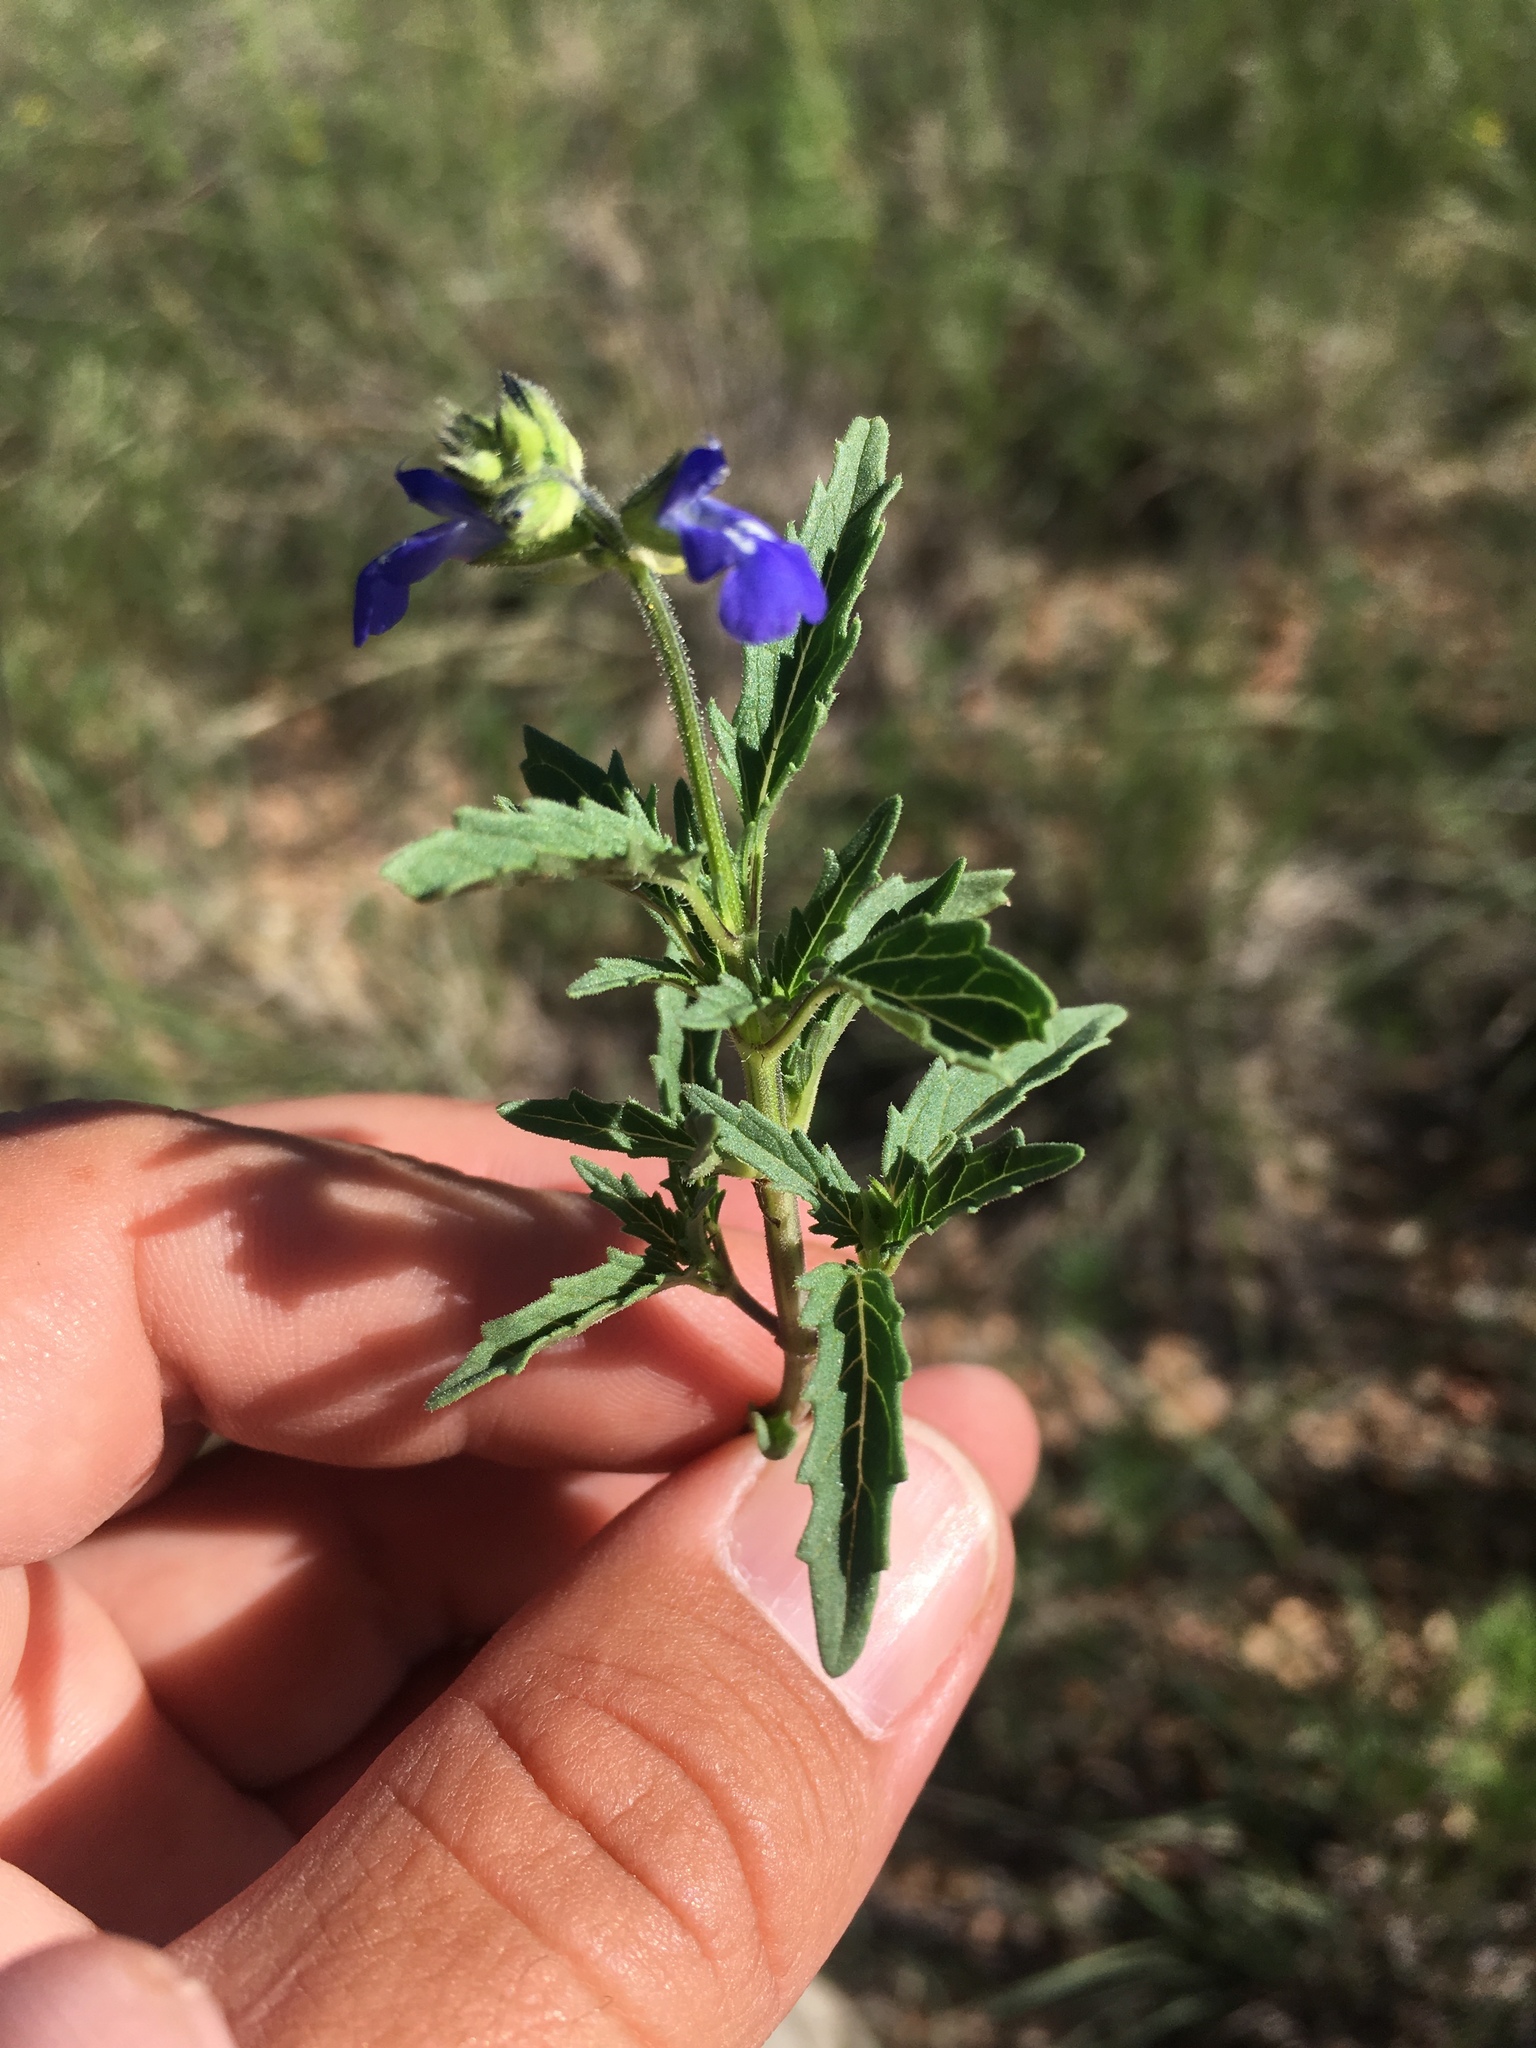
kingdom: Plantae
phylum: Tracheophyta
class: Magnoliopsida
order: Lamiales
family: Lamiaceae
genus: Salvia
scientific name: Salvia subincisa
